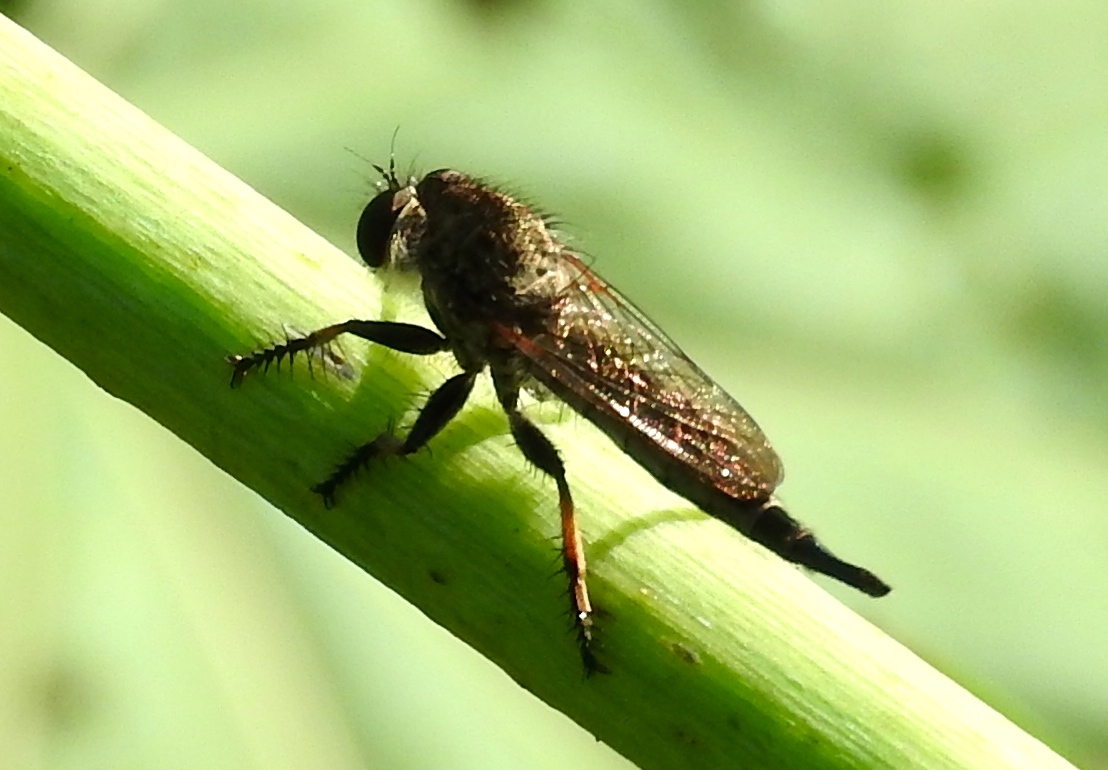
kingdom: Animalia
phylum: Arthropoda
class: Insecta
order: Diptera
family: Asilidae
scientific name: Asilidae
